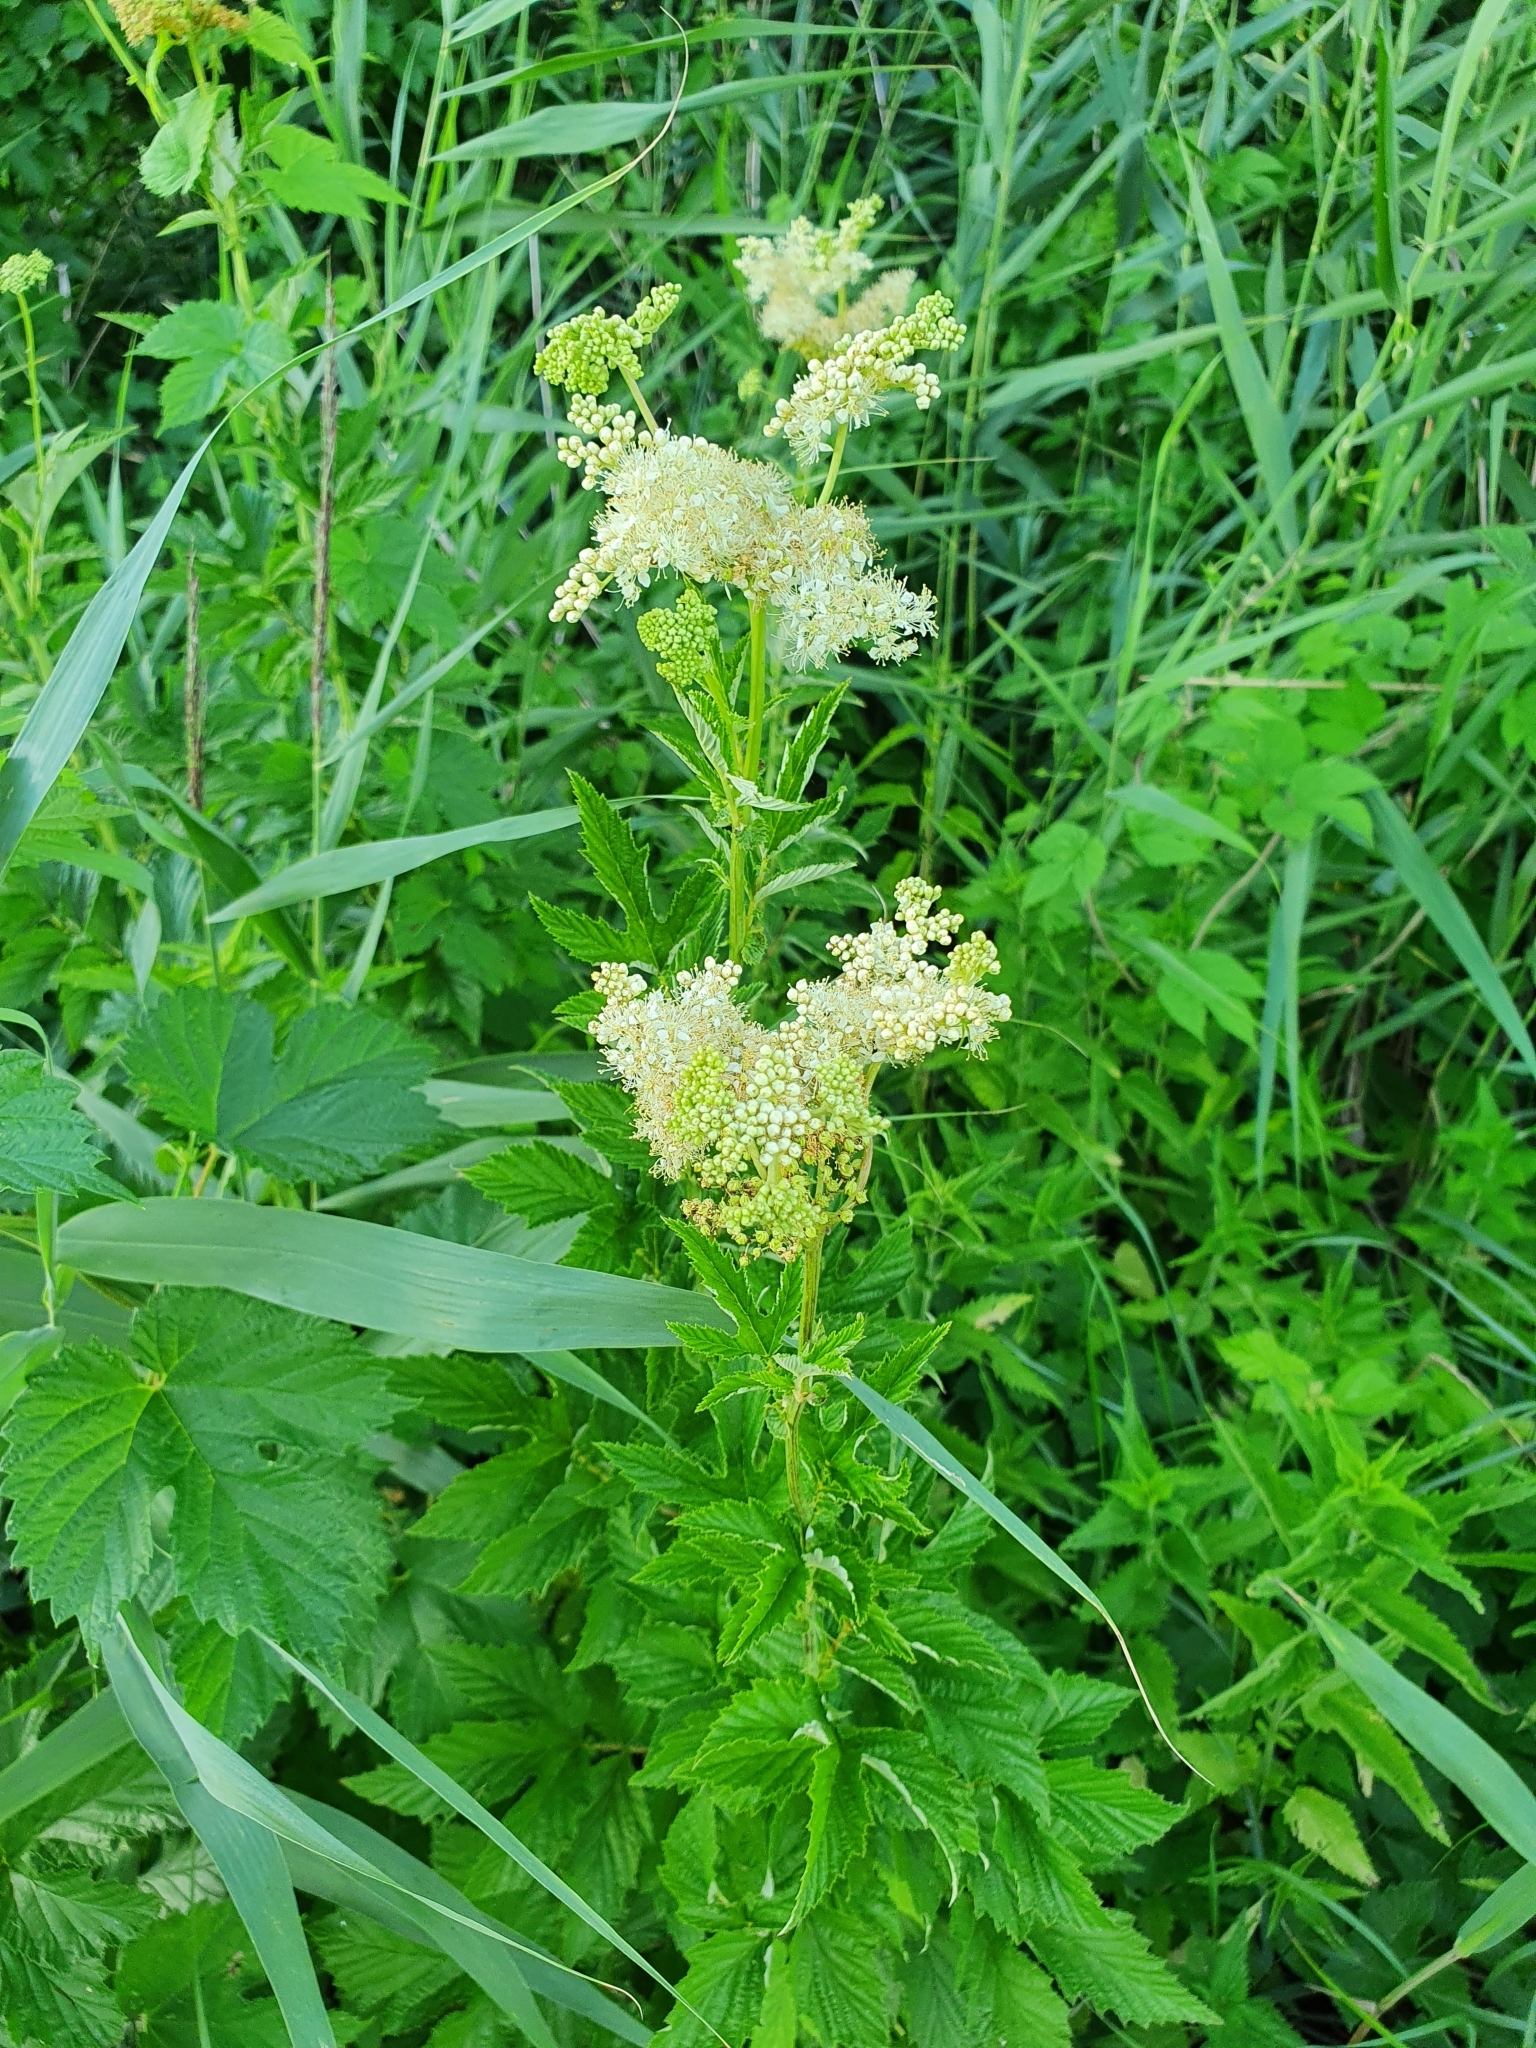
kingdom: Plantae
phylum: Tracheophyta
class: Magnoliopsida
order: Rosales
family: Rosaceae
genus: Filipendula
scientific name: Filipendula ulmaria
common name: Meadowsweet
